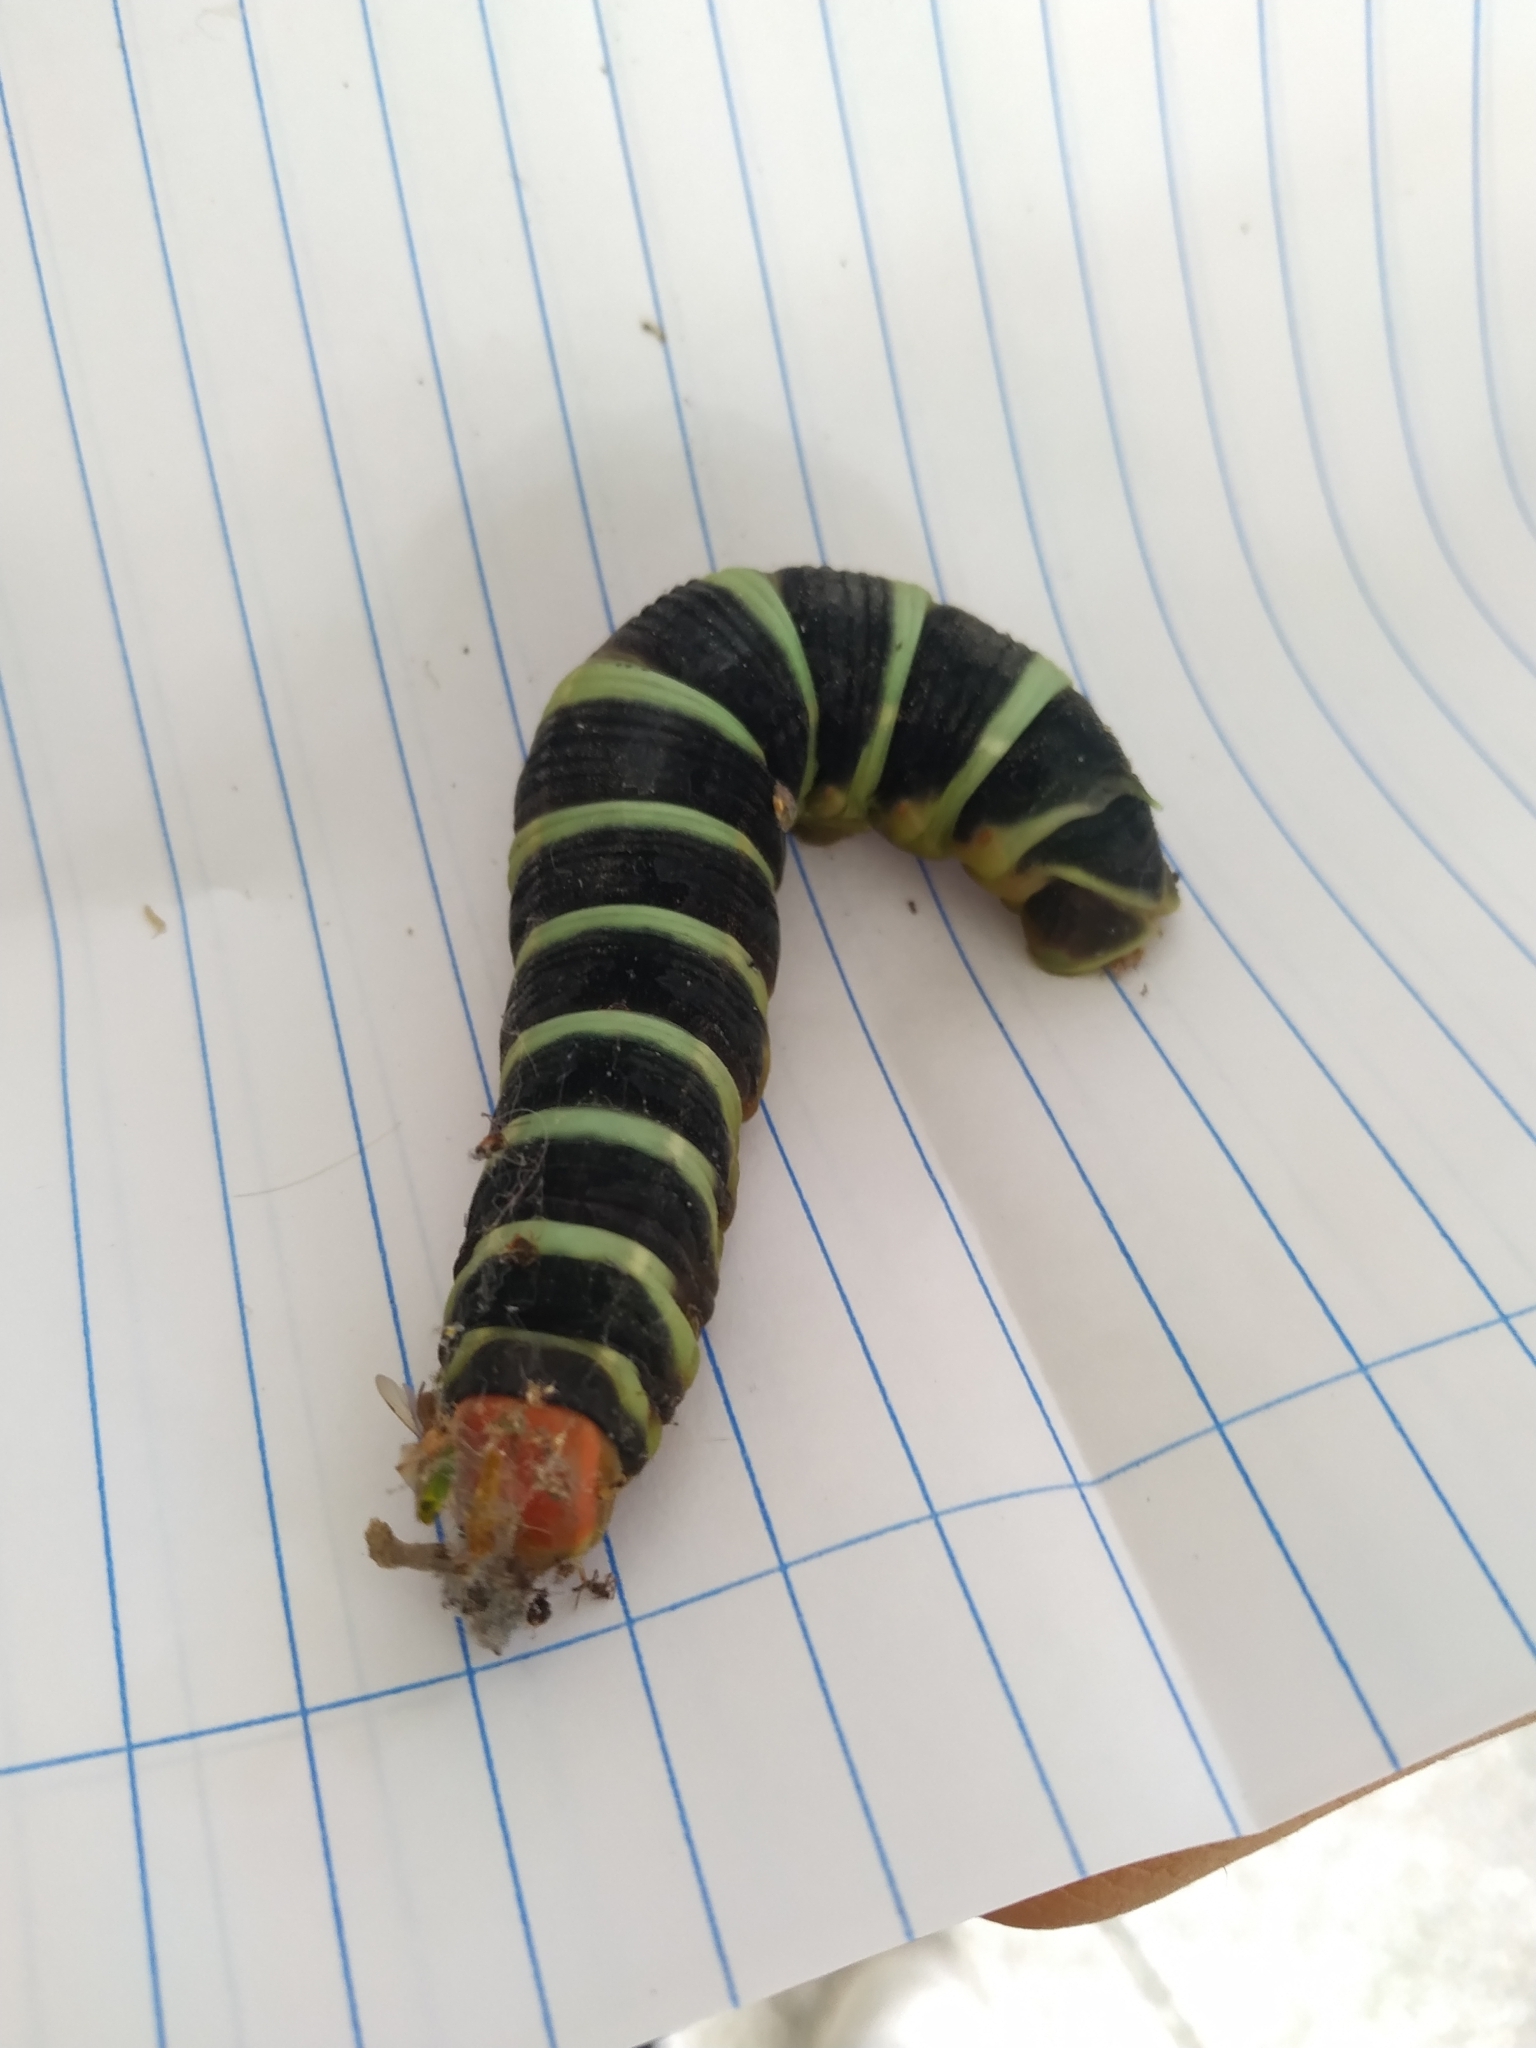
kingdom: Animalia
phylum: Arthropoda
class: Insecta
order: Lepidoptera
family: Sphingidae
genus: Pachylia
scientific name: Pachylia syces
